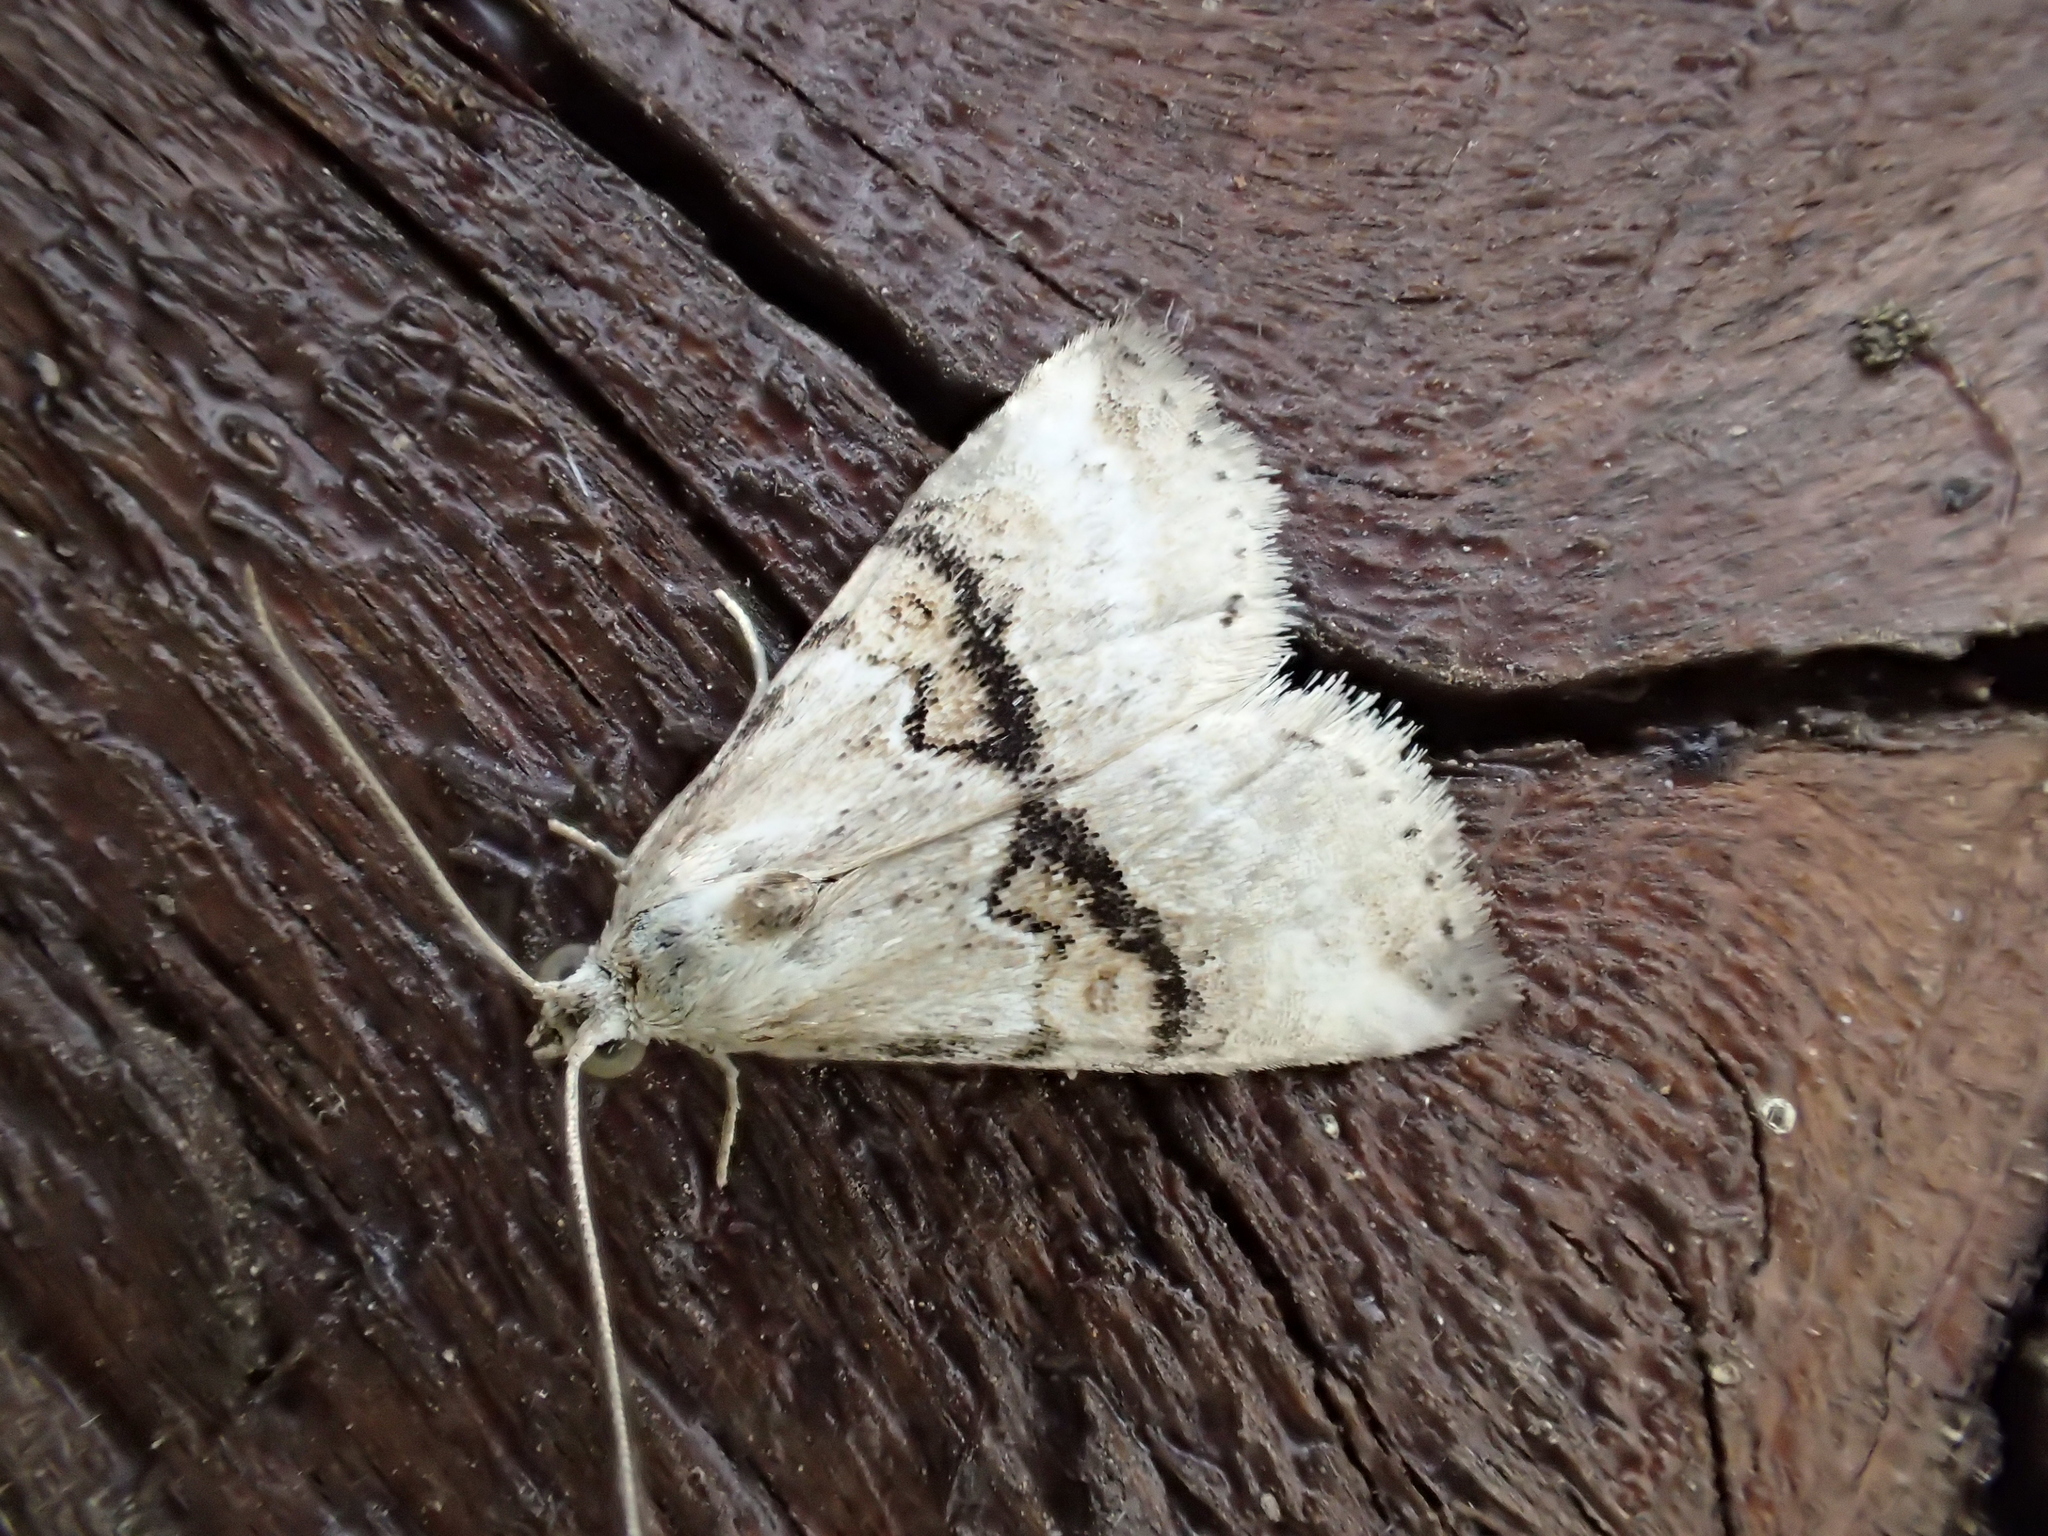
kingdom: Animalia
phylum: Arthropoda
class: Insecta
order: Lepidoptera
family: Erebidae
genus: Zebeeba
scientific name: Zebeeba falsalis
